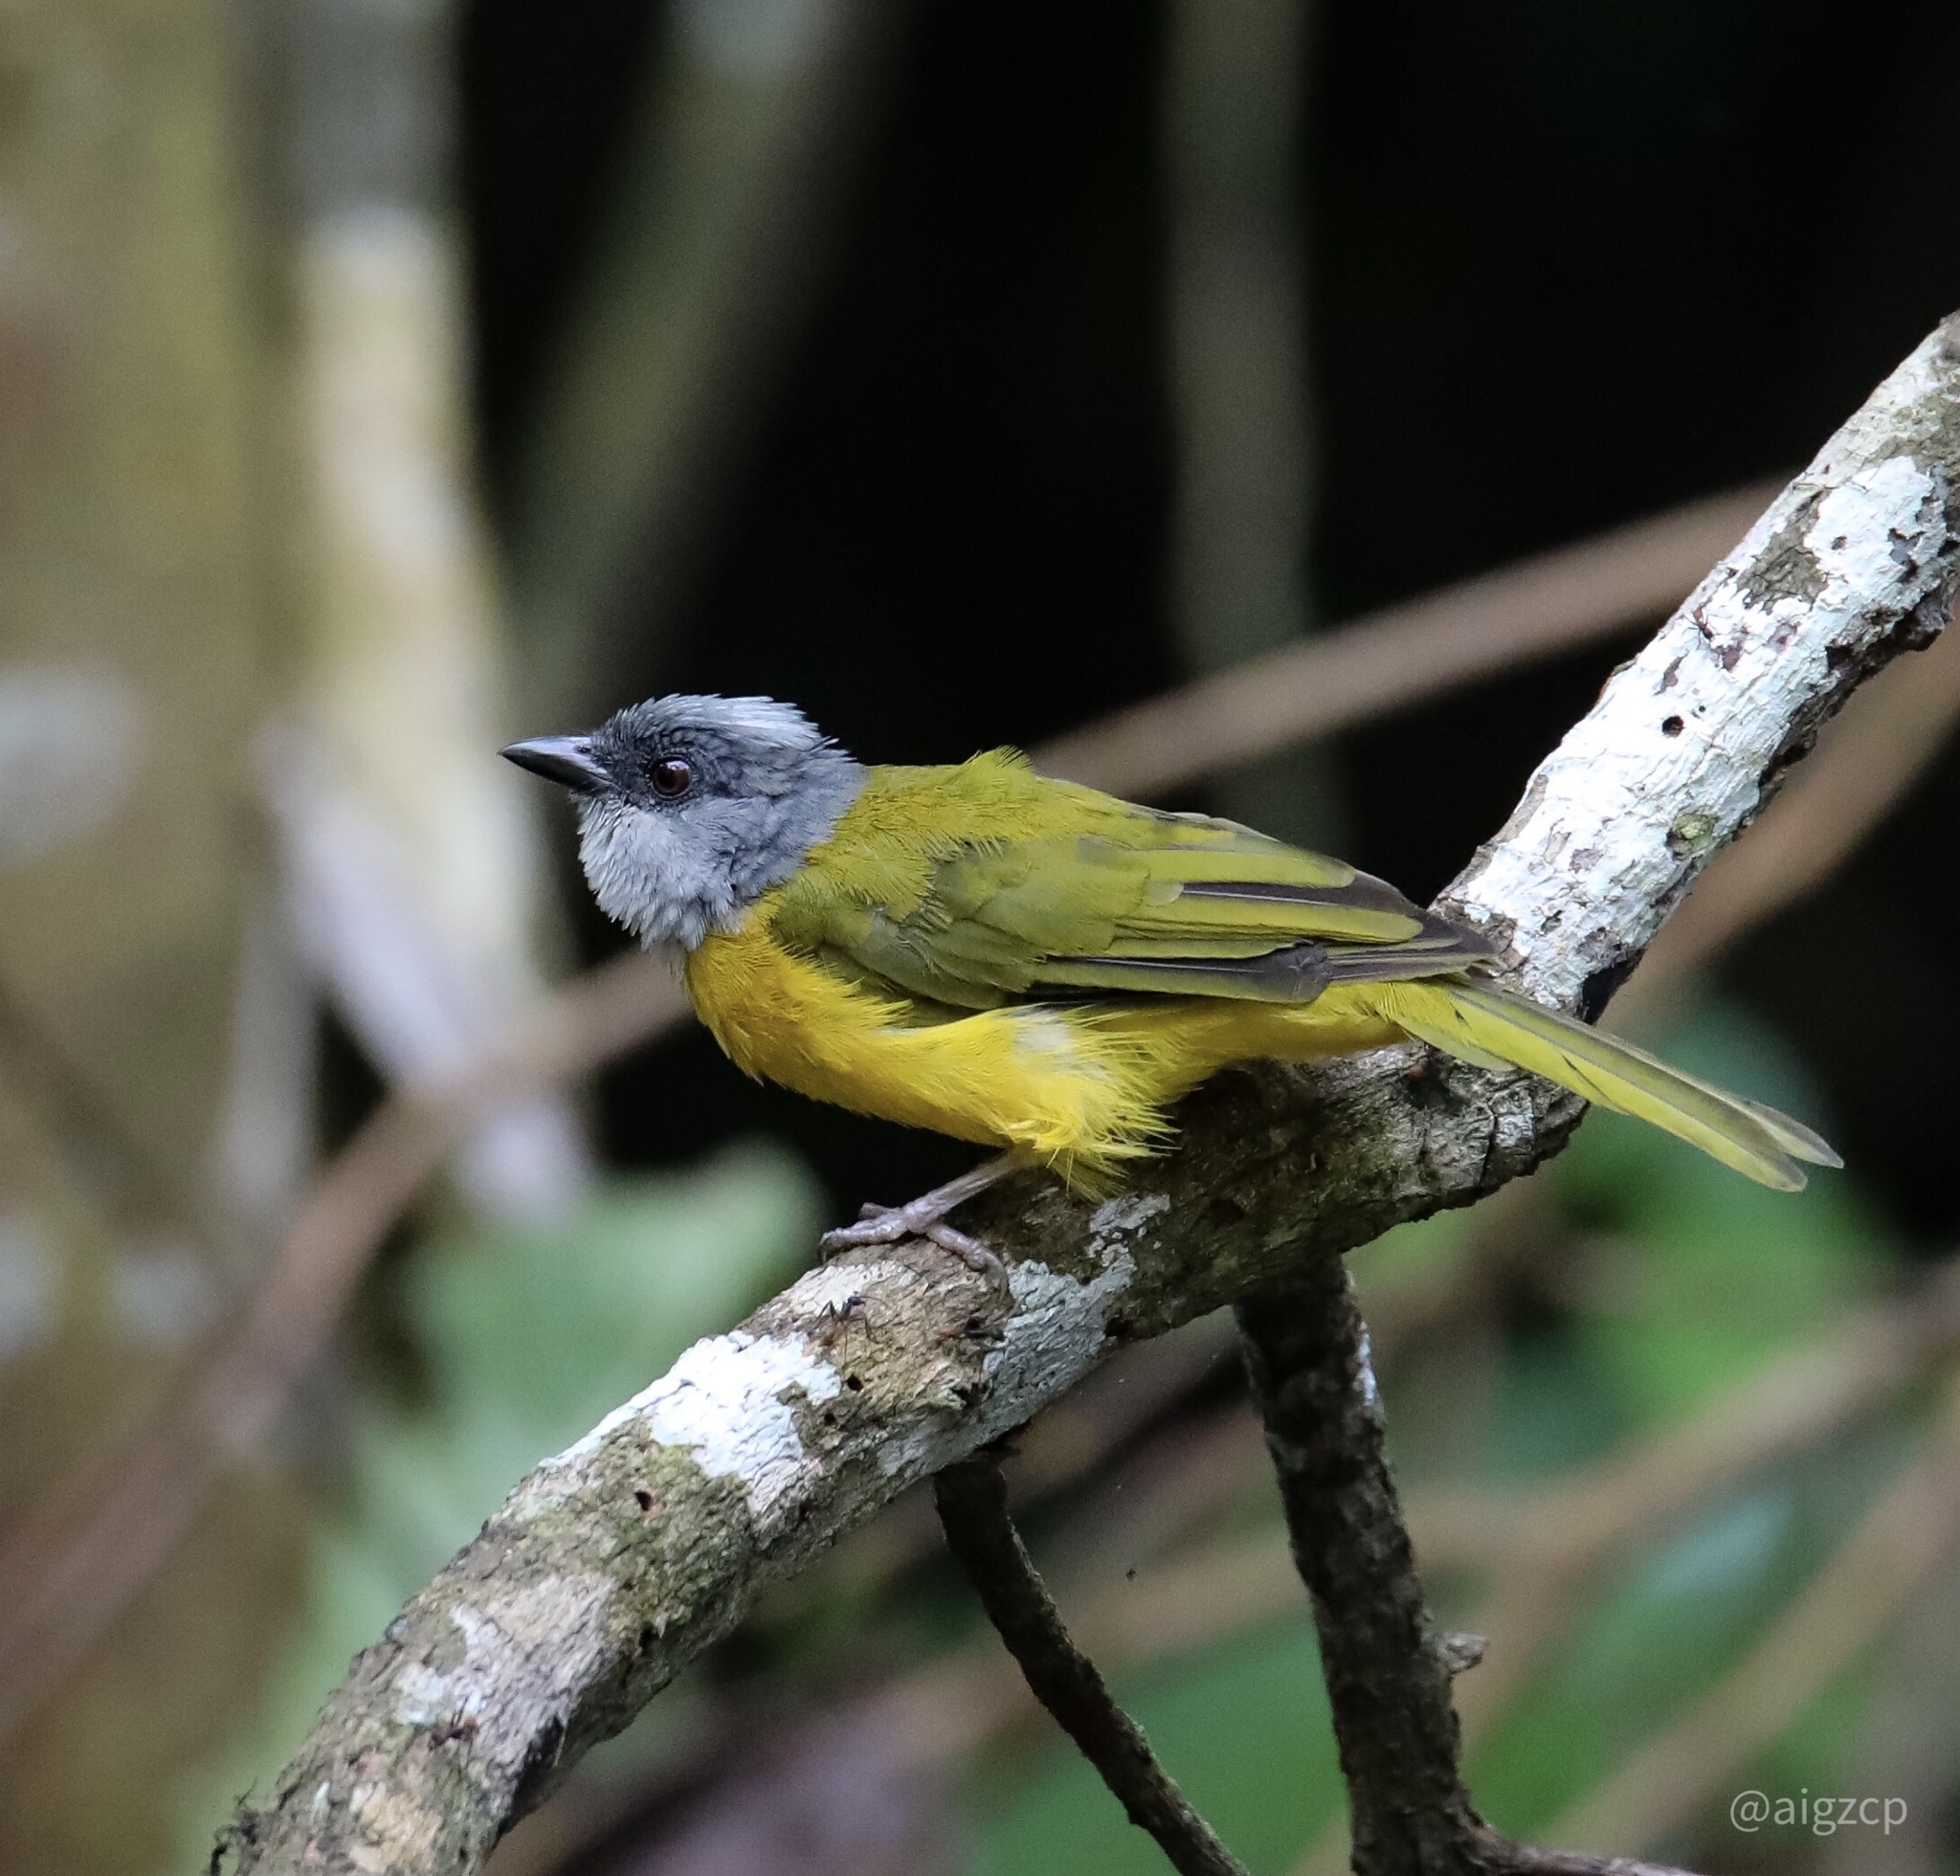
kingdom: Animalia
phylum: Chordata
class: Aves
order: Passeriformes
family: Thraupidae
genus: Eucometis
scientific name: Eucometis penicillata
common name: Grey-headed tanager
